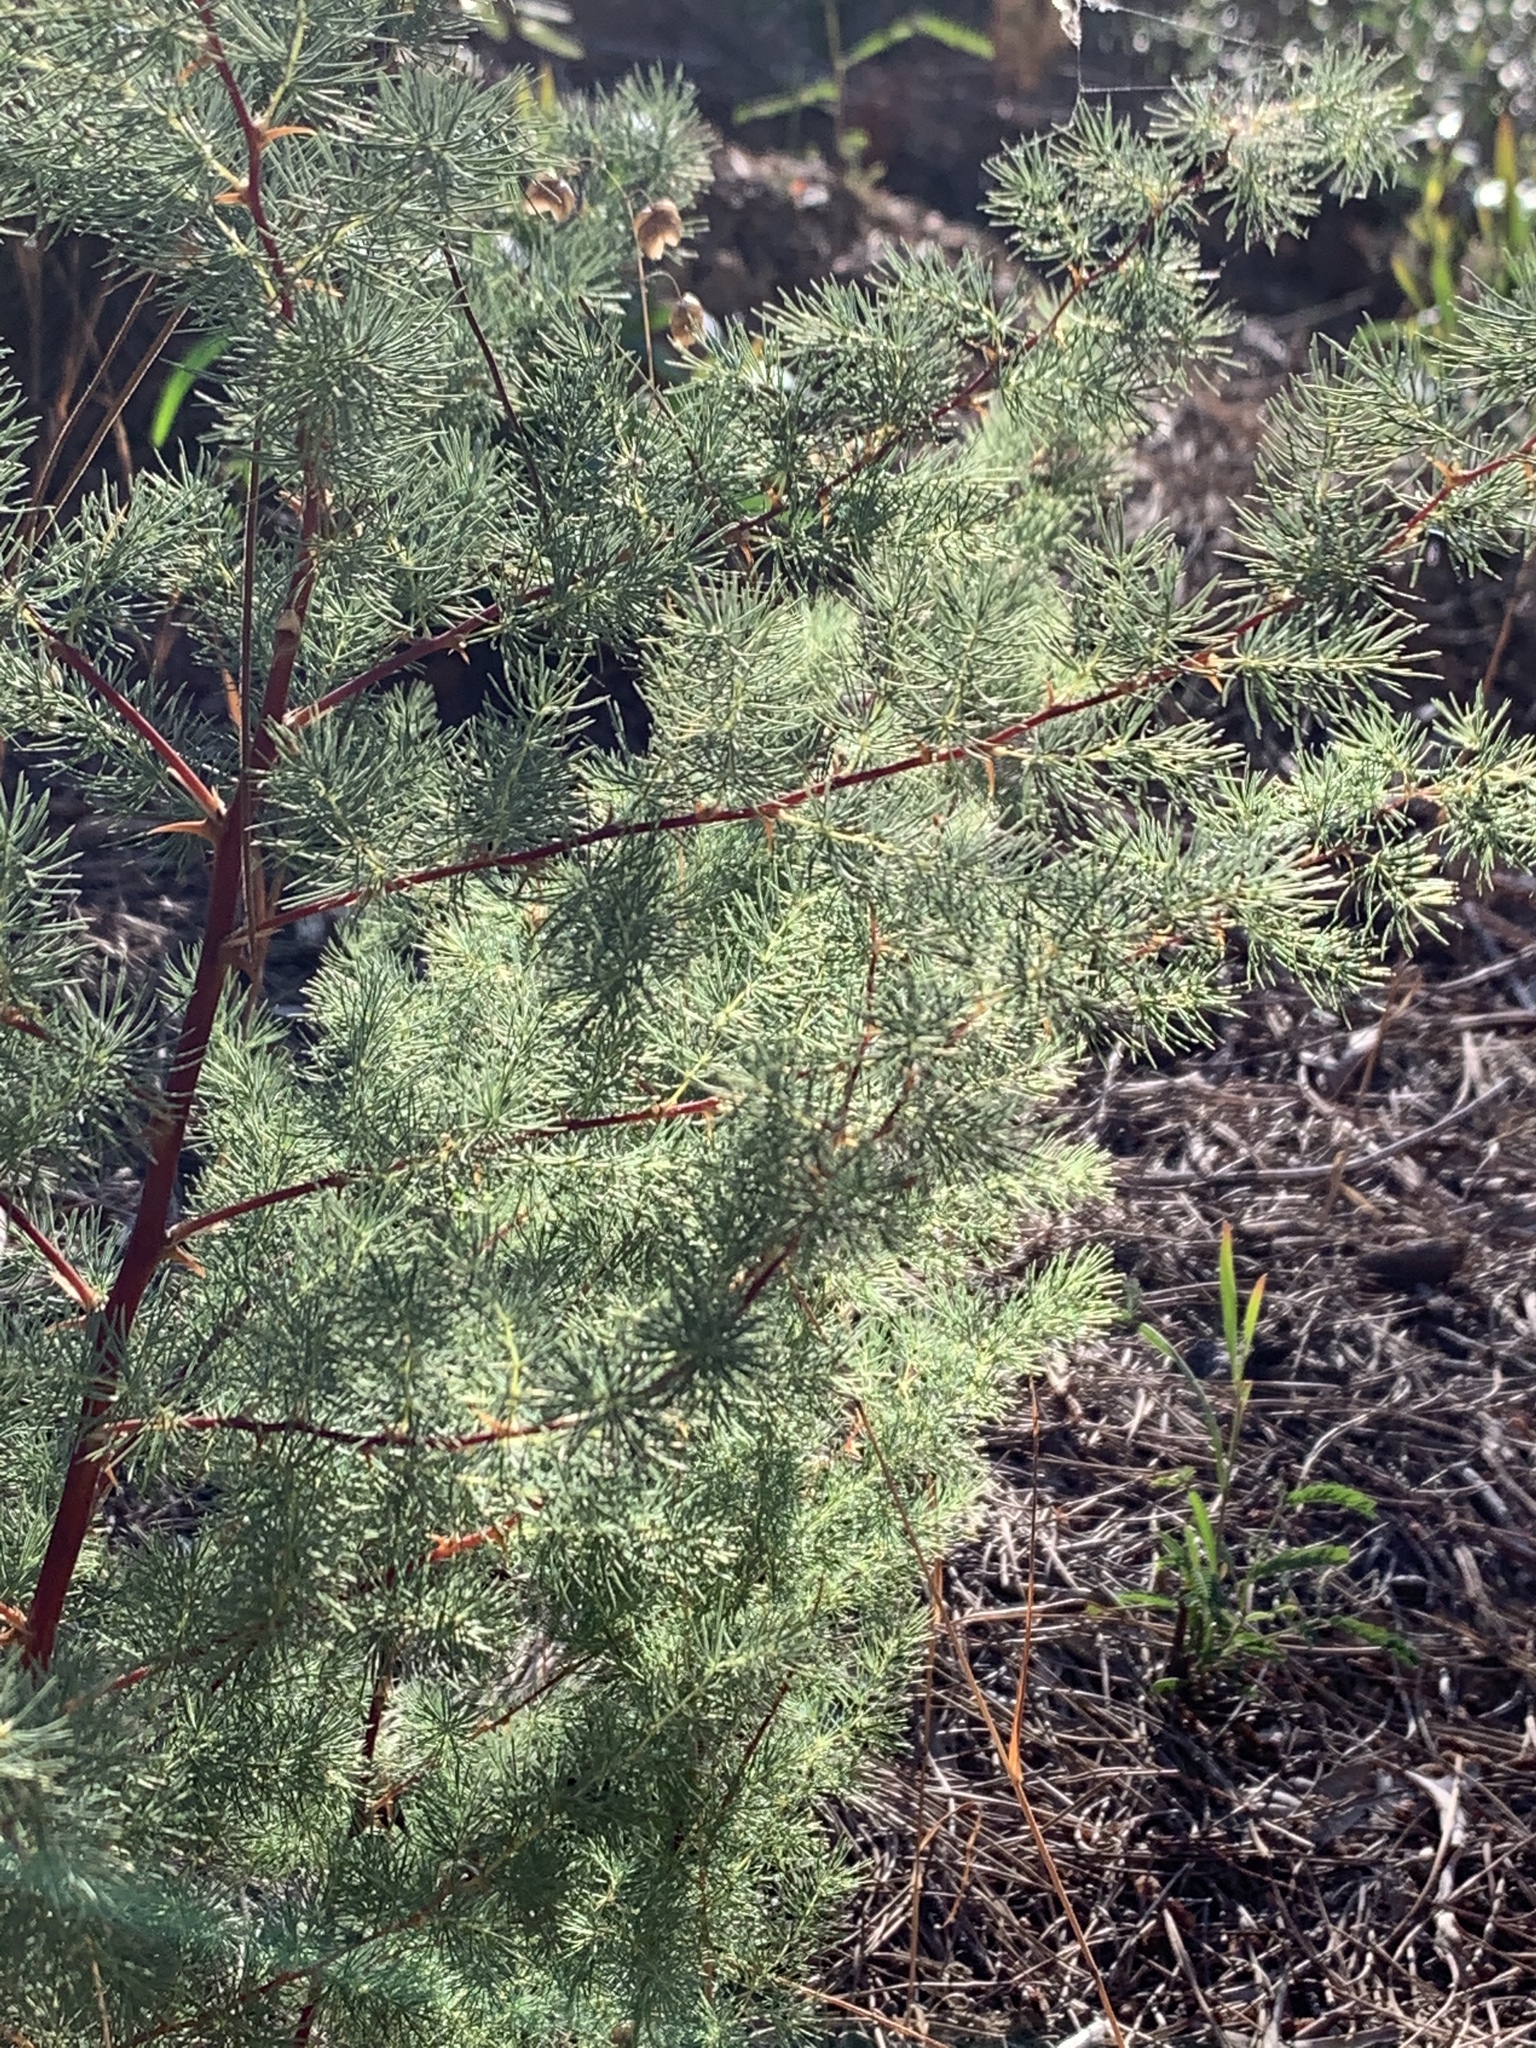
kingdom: Plantae
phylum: Tracheophyta
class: Liliopsida
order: Asparagales
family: Asparagaceae
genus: Asparagus
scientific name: Asparagus rubicundus
